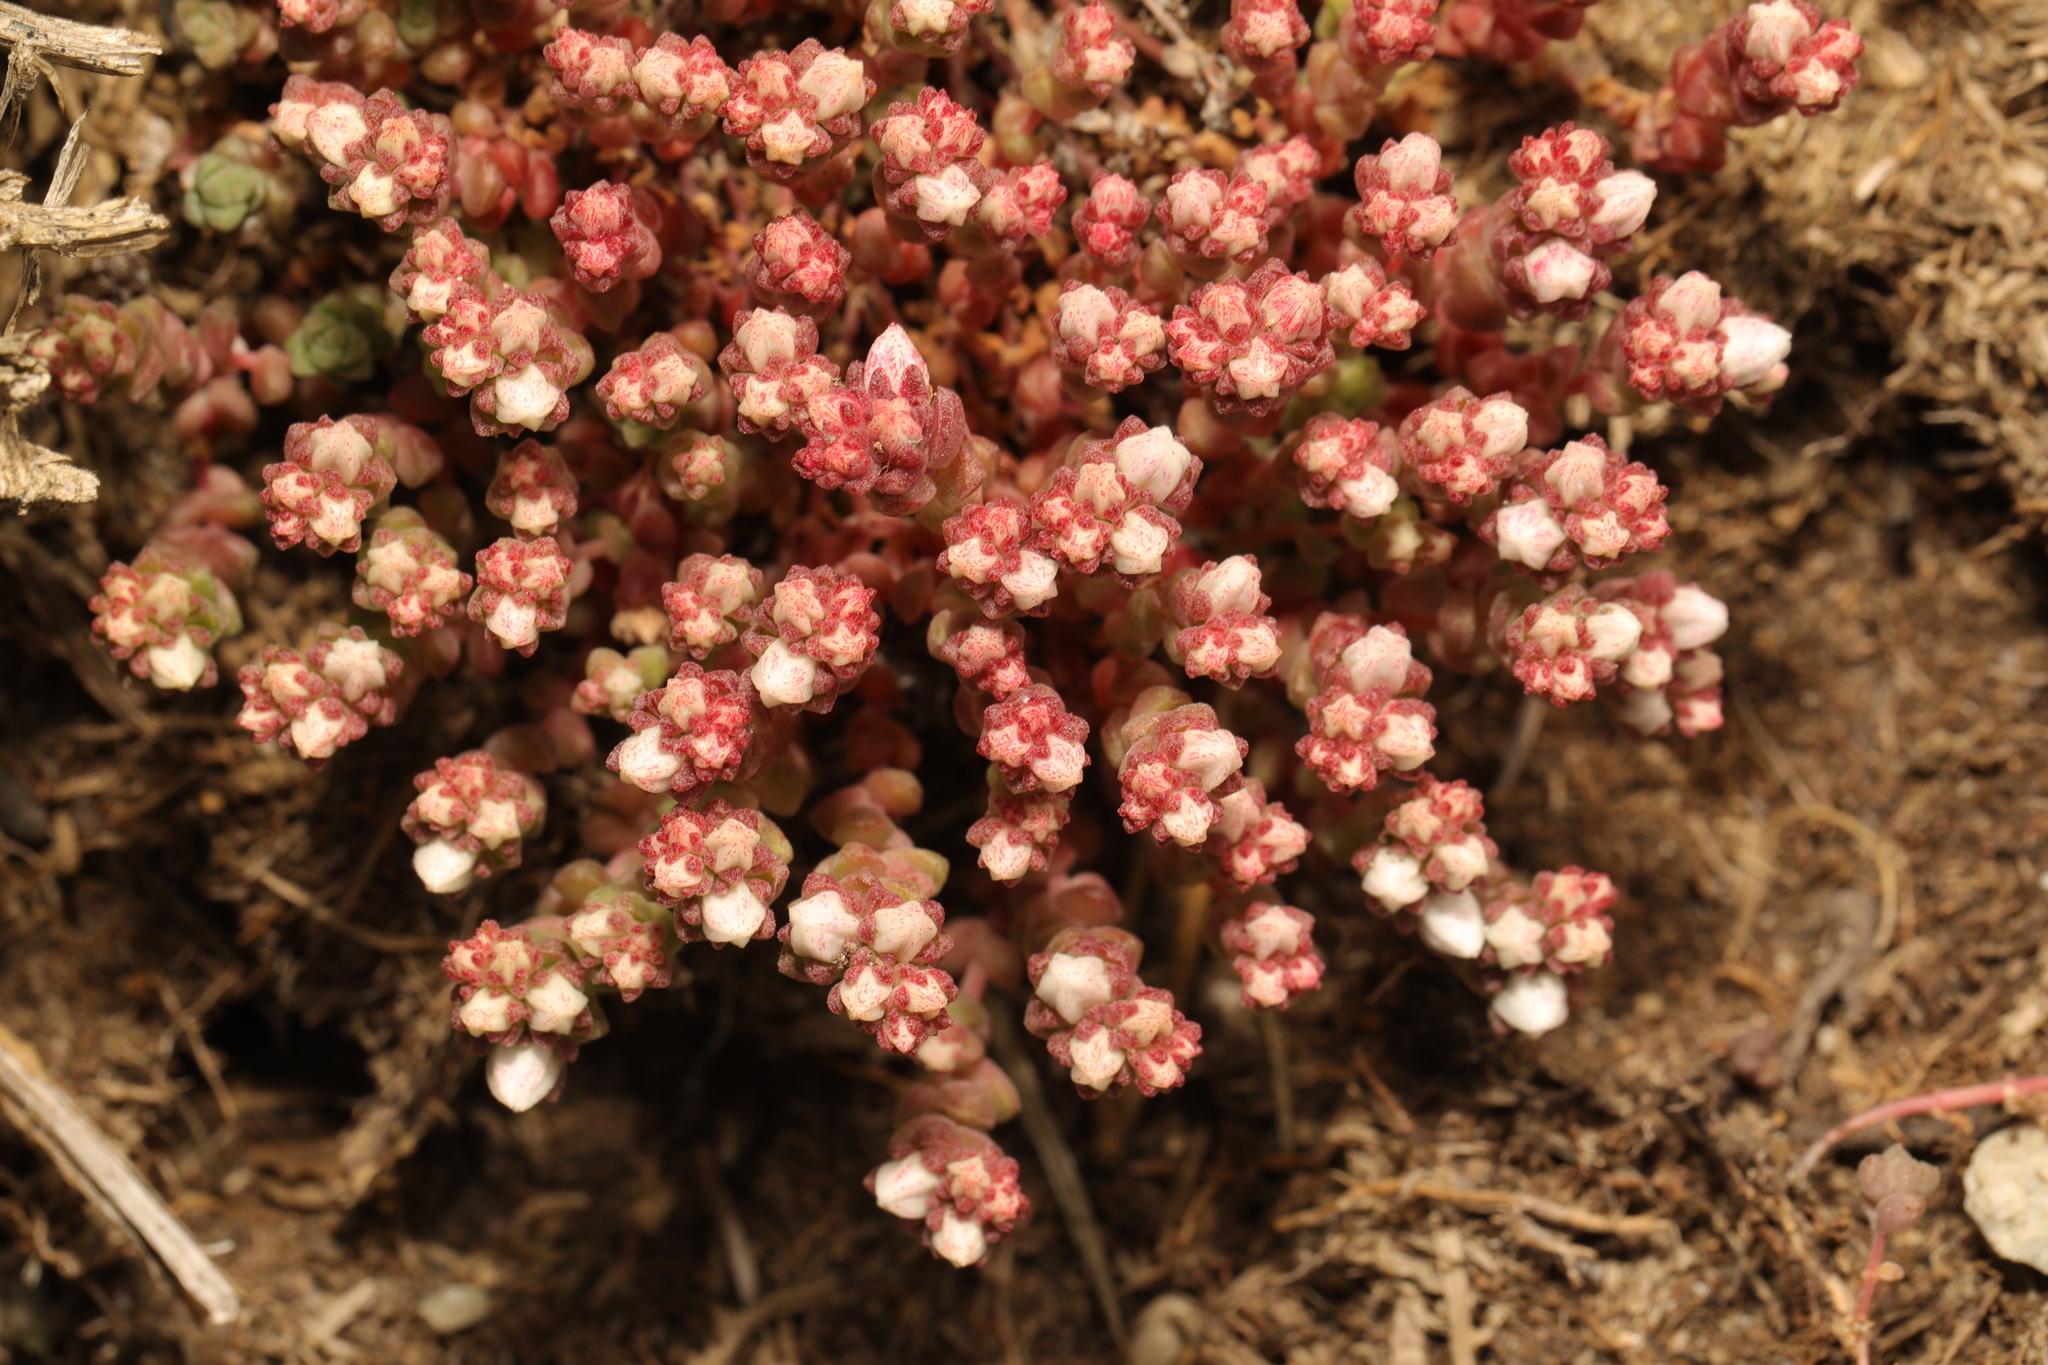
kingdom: Plantae
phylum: Tracheophyta
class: Magnoliopsida
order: Saxifragales
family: Crassulaceae
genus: Sedum
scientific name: Sedum anglicum
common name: English stonecrop
